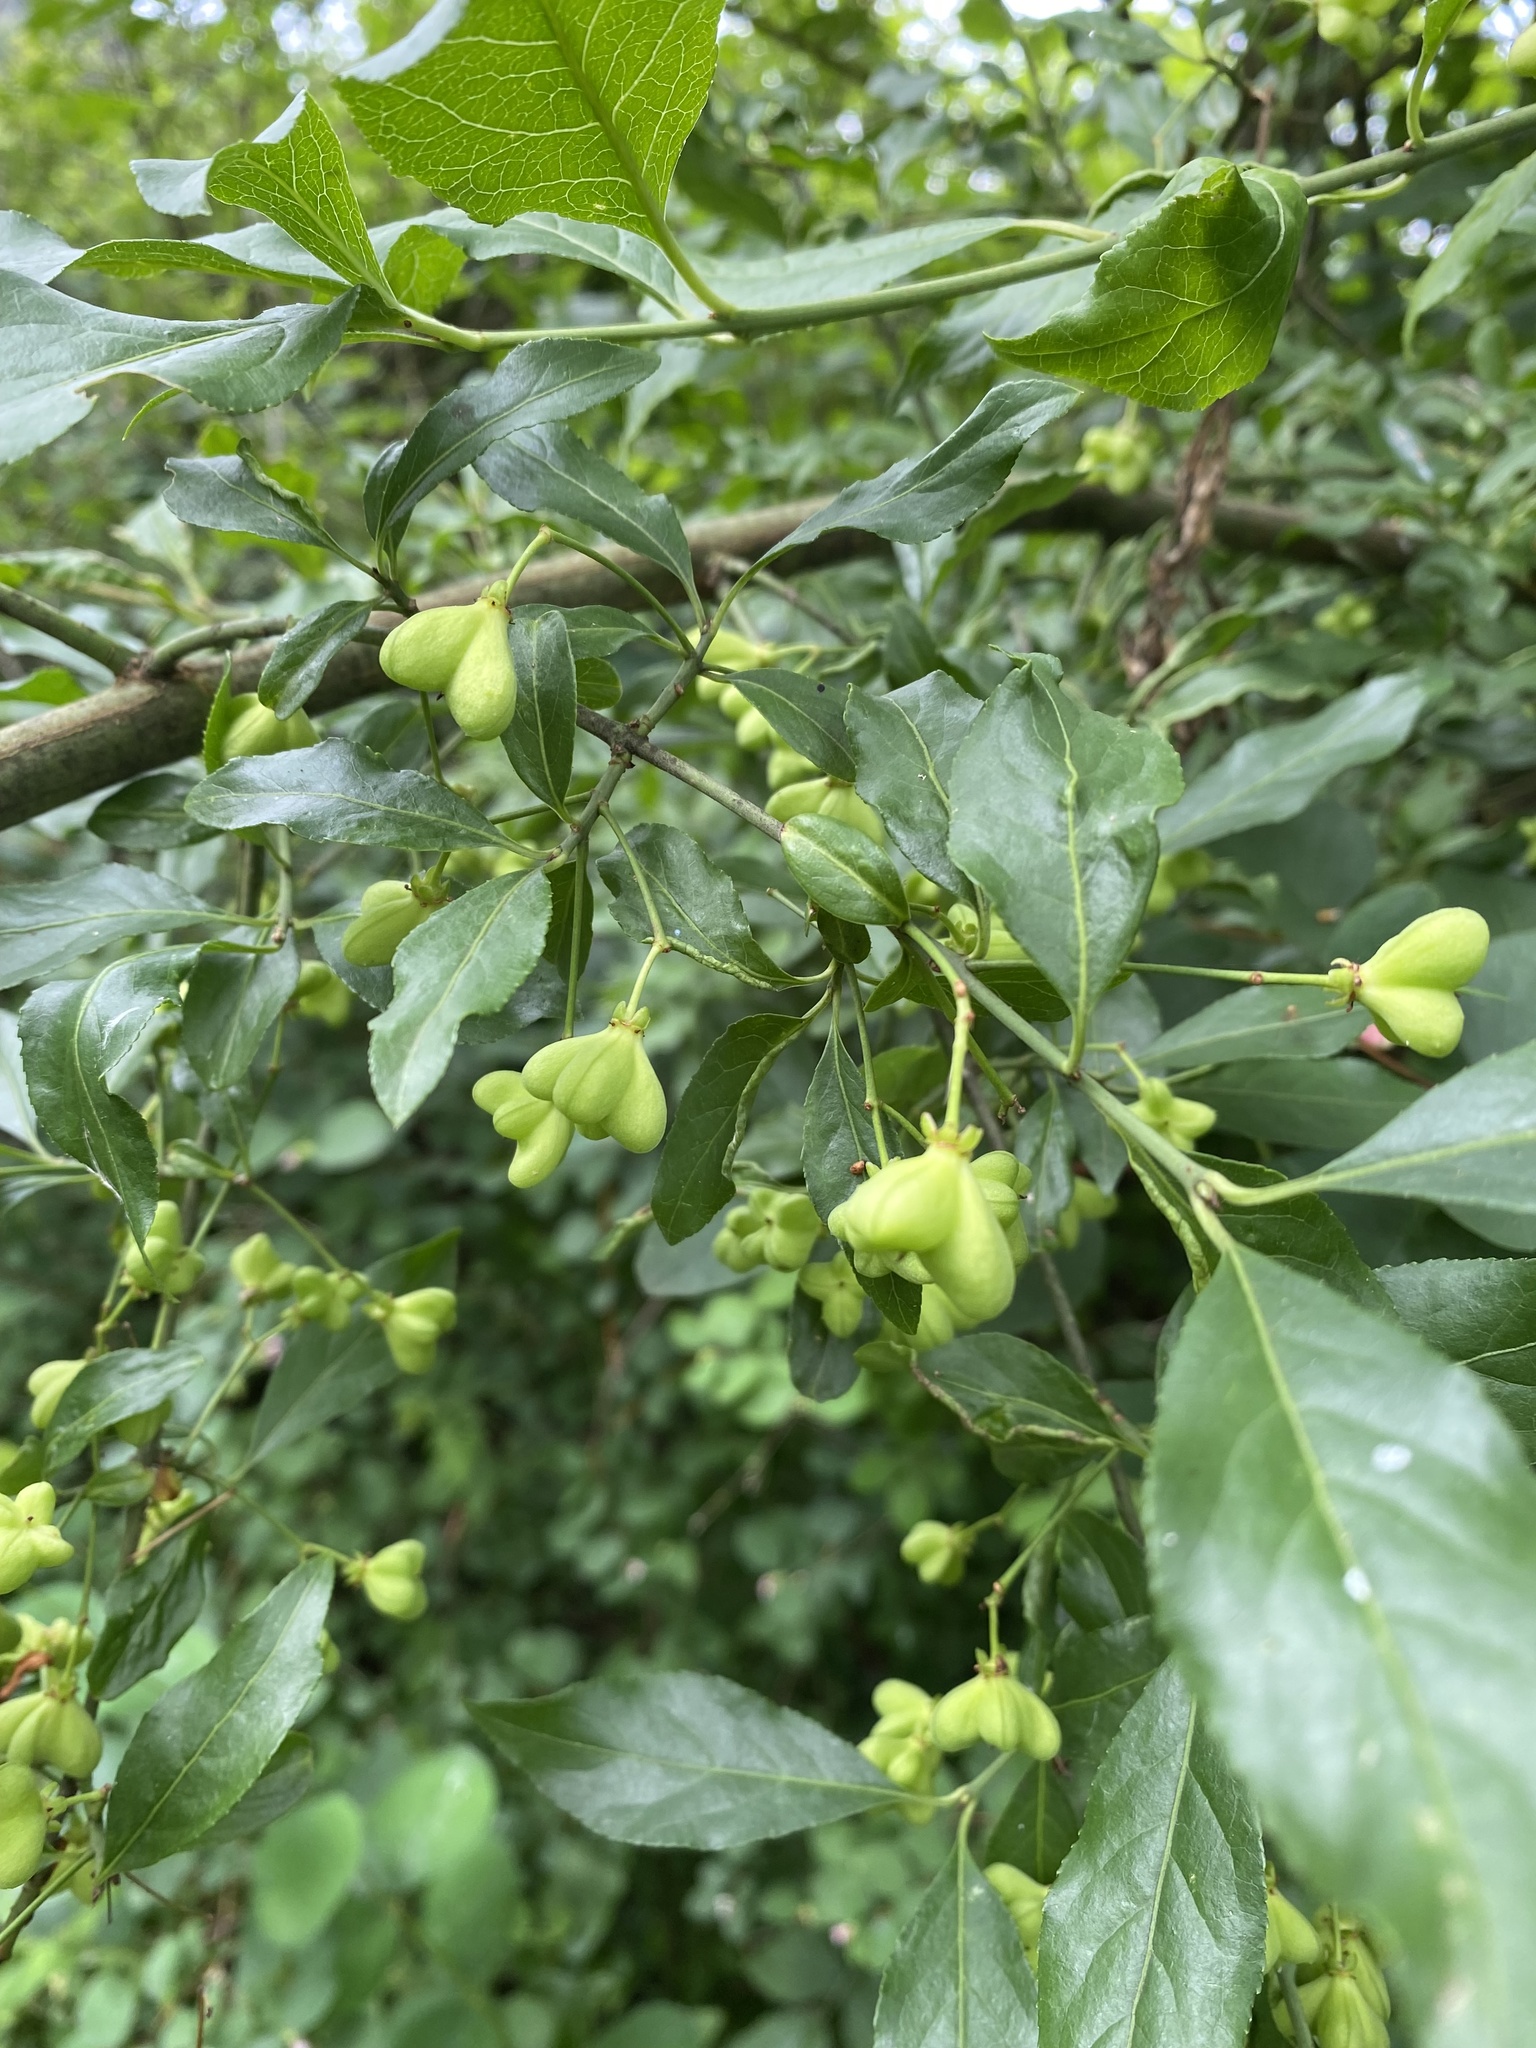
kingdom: Plantae
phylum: Tracheophyta
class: Magnoliopsida
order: Celastrales
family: Celastraceae
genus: Euonymus
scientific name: Euonymus europaeus
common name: Spindle
